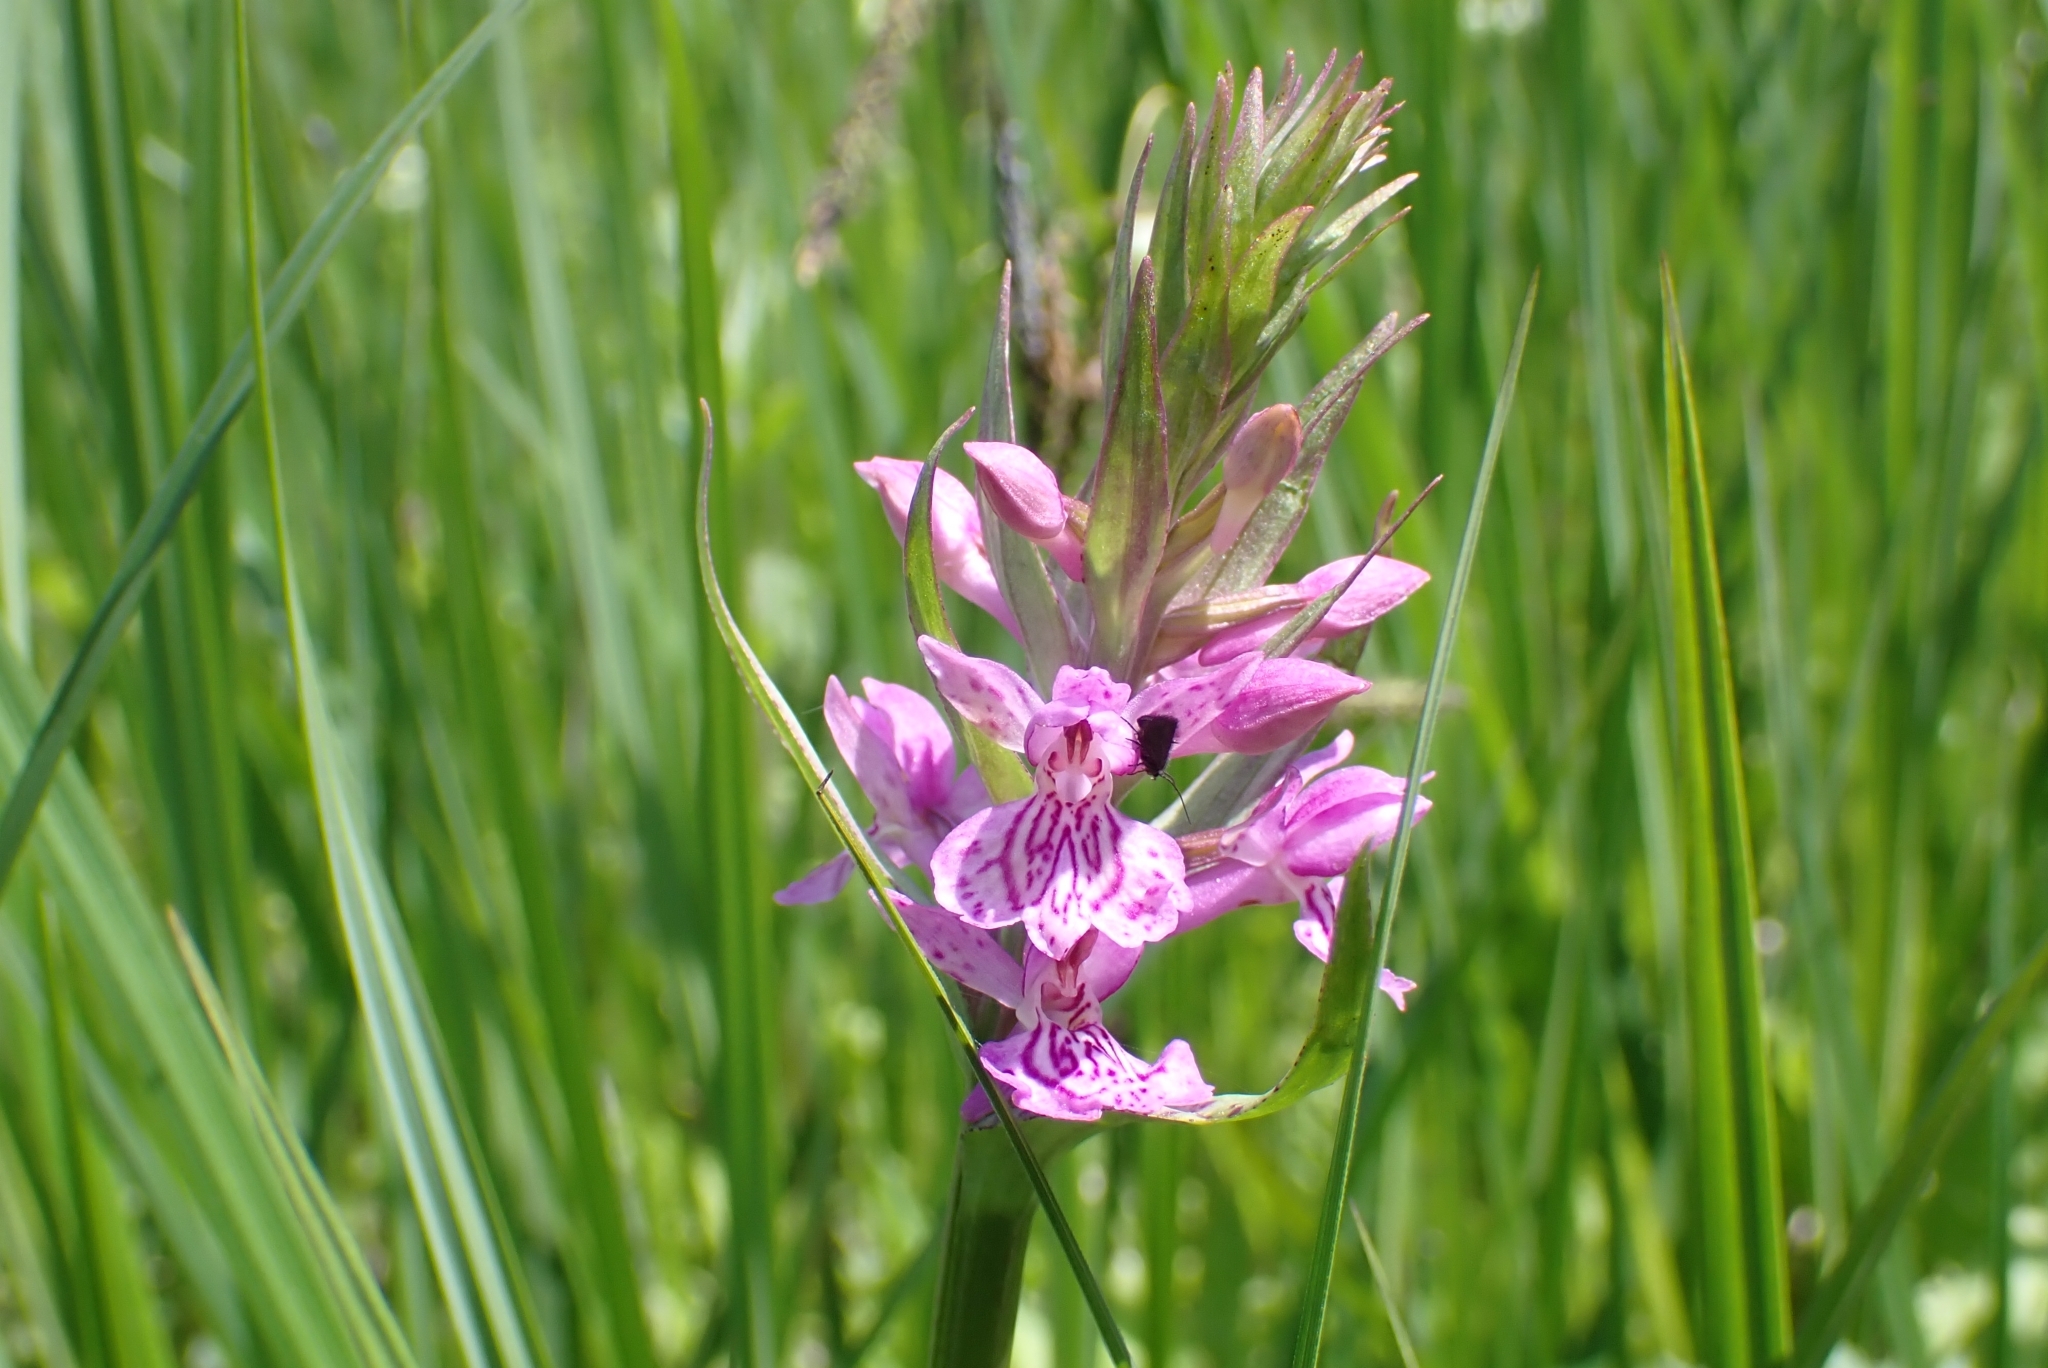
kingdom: Plantae
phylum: Tracheophyta
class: Liliopsida
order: Asparagales
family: Orchidaceae
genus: Dactylorhiza
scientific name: Dactylorhiza majalis
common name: Marsh orchid
